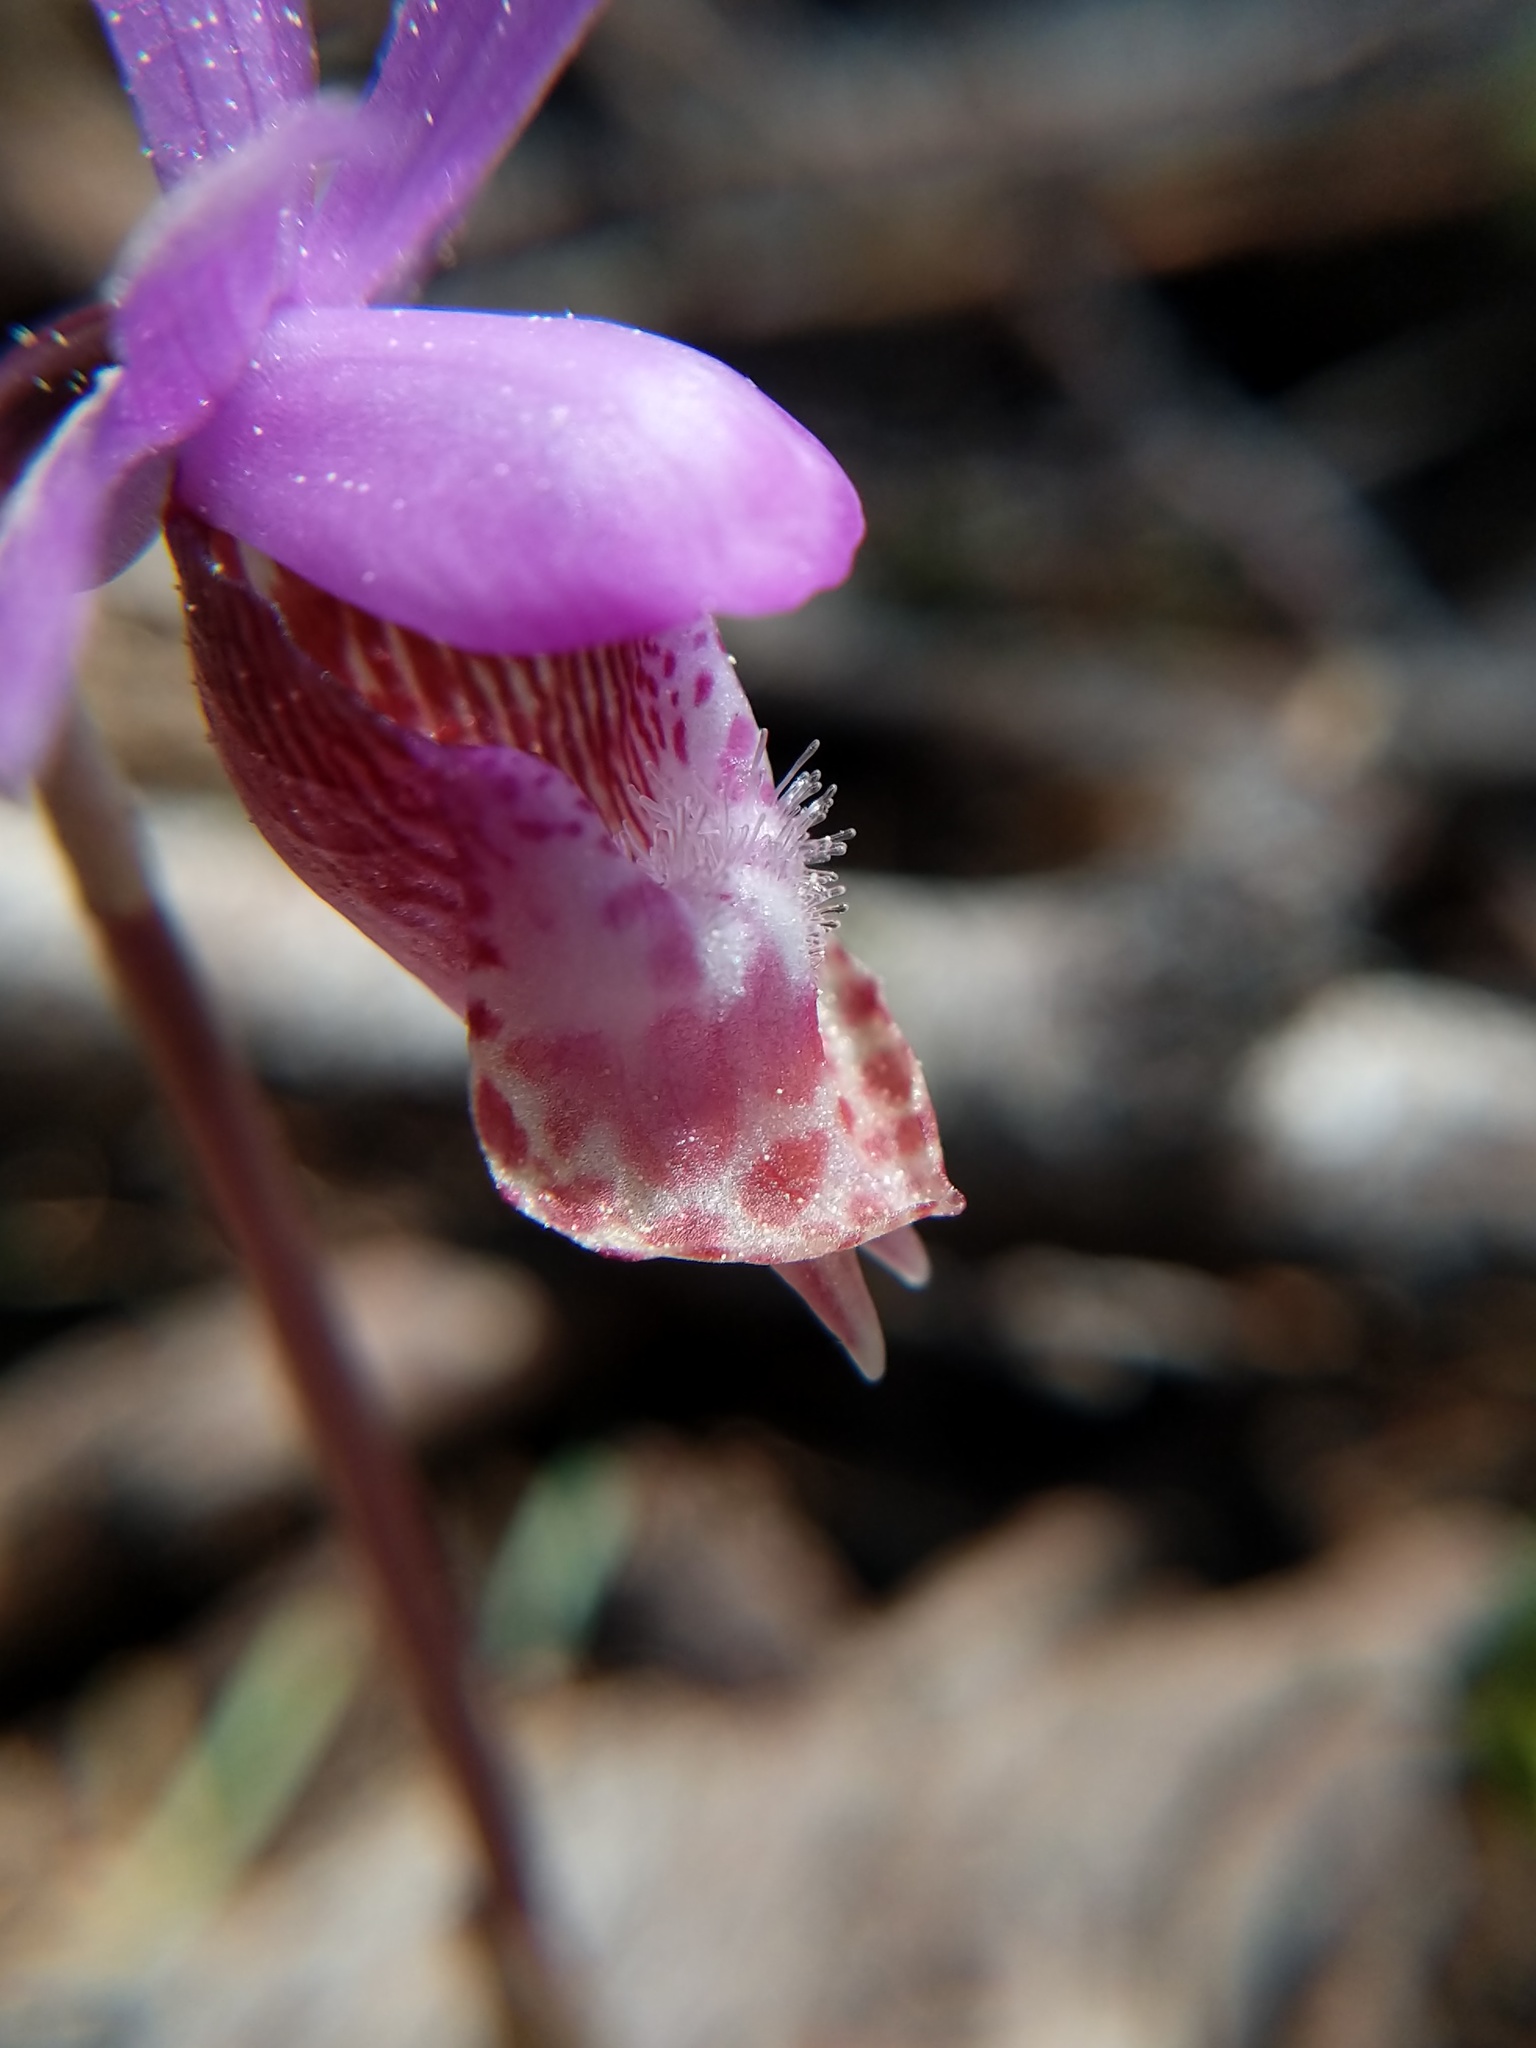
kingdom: Plantae
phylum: Tracheophyta
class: Liliopsida
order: Asparagales
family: Orchidaceae
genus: Calypso
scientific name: Calypso bulbosa
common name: Calypso
